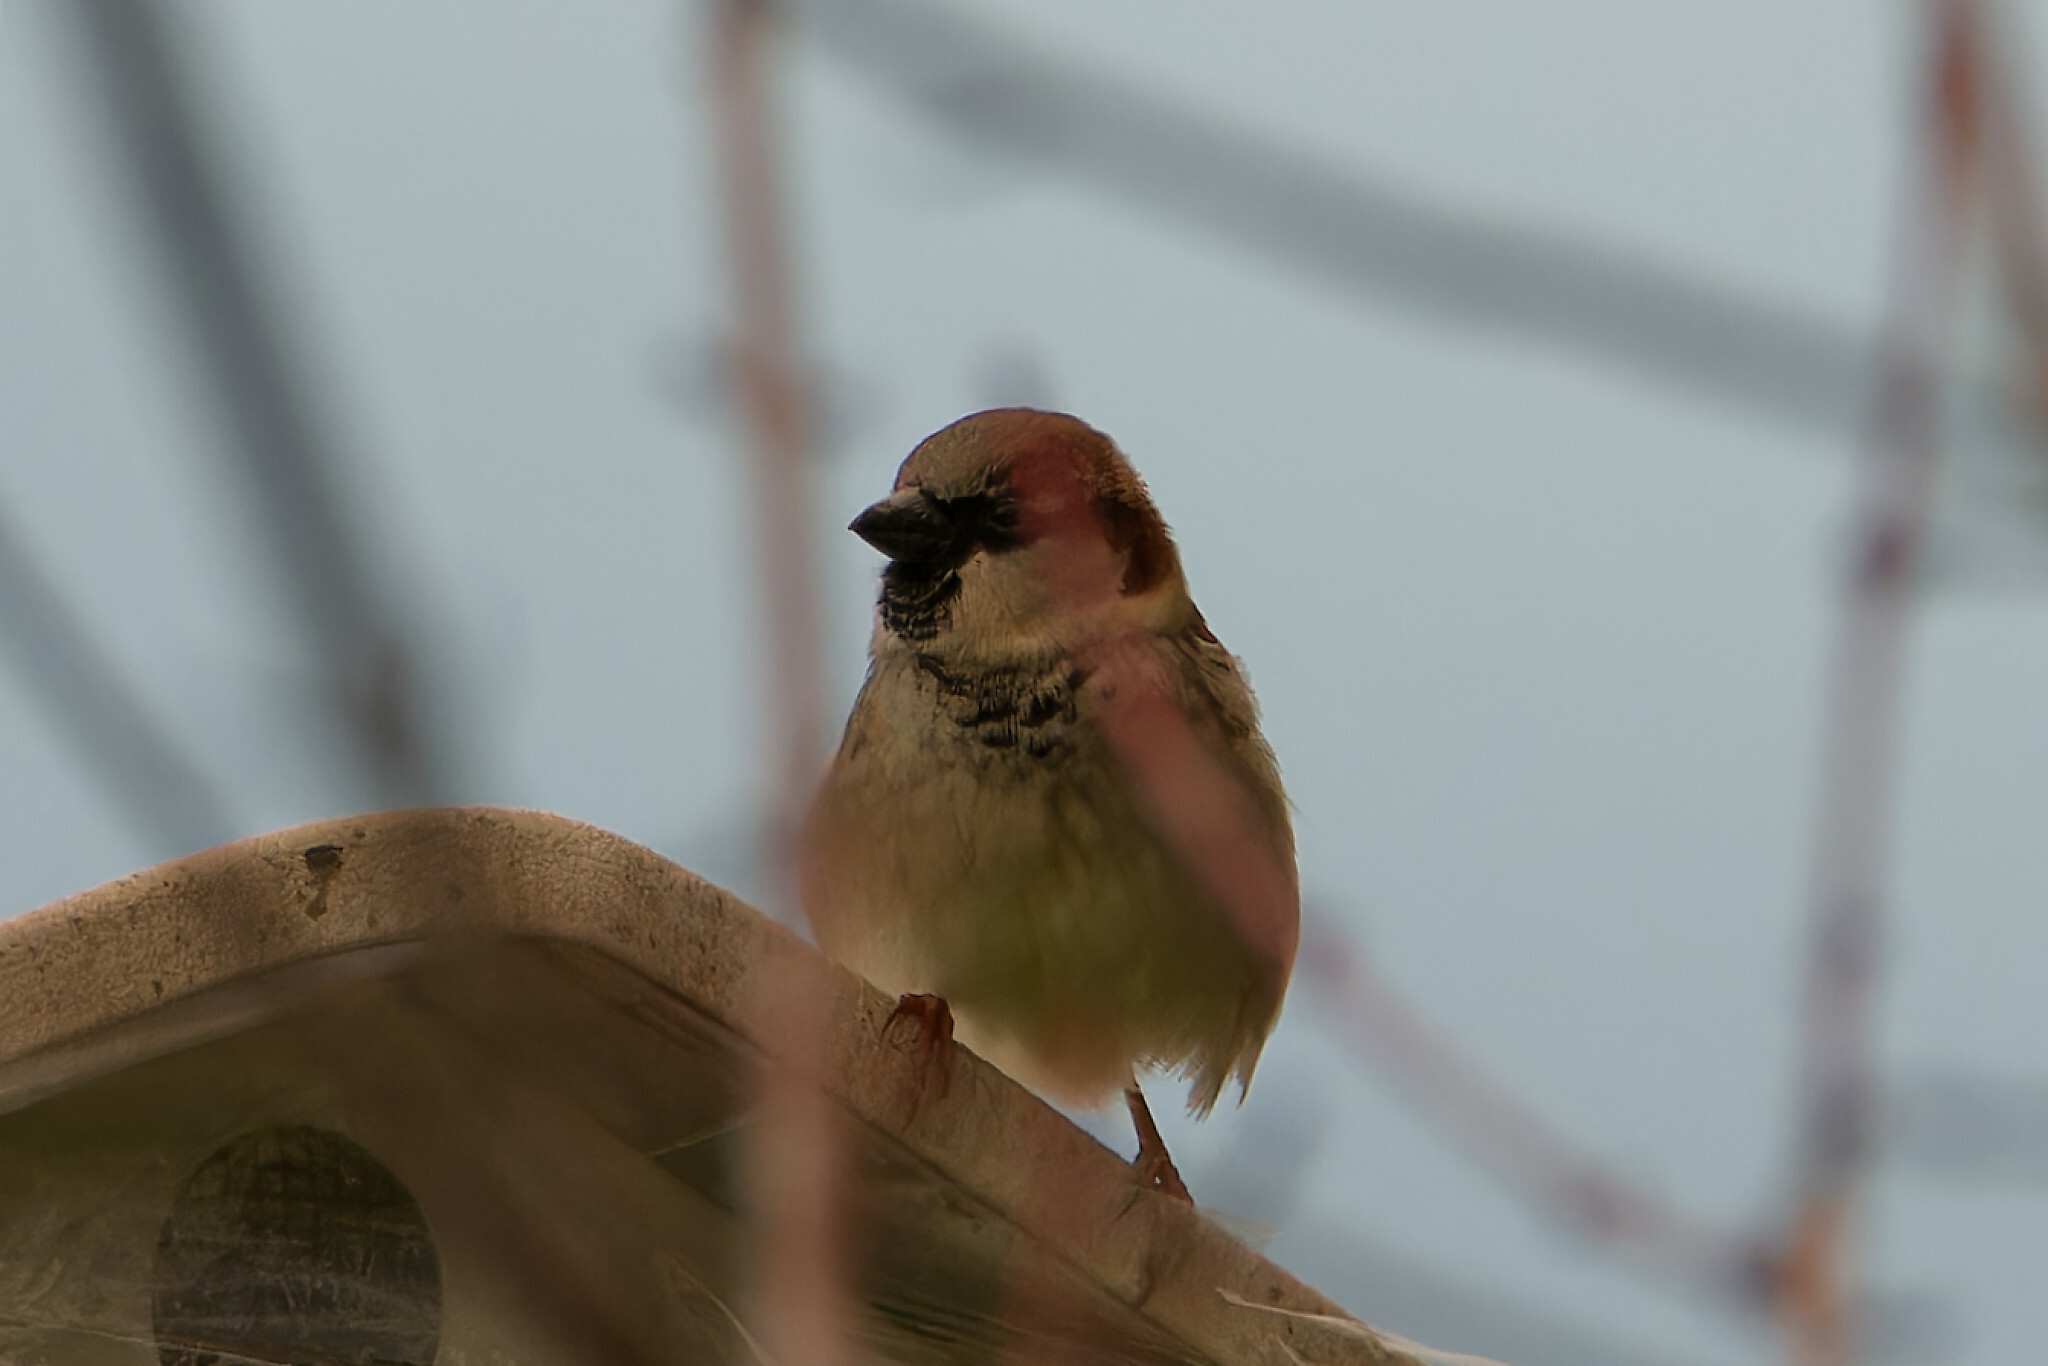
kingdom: Animalia
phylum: Chordata
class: Aves
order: Passeriformes
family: Passeridae
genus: Passer
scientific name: Passer domesticus
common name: House sparrow
